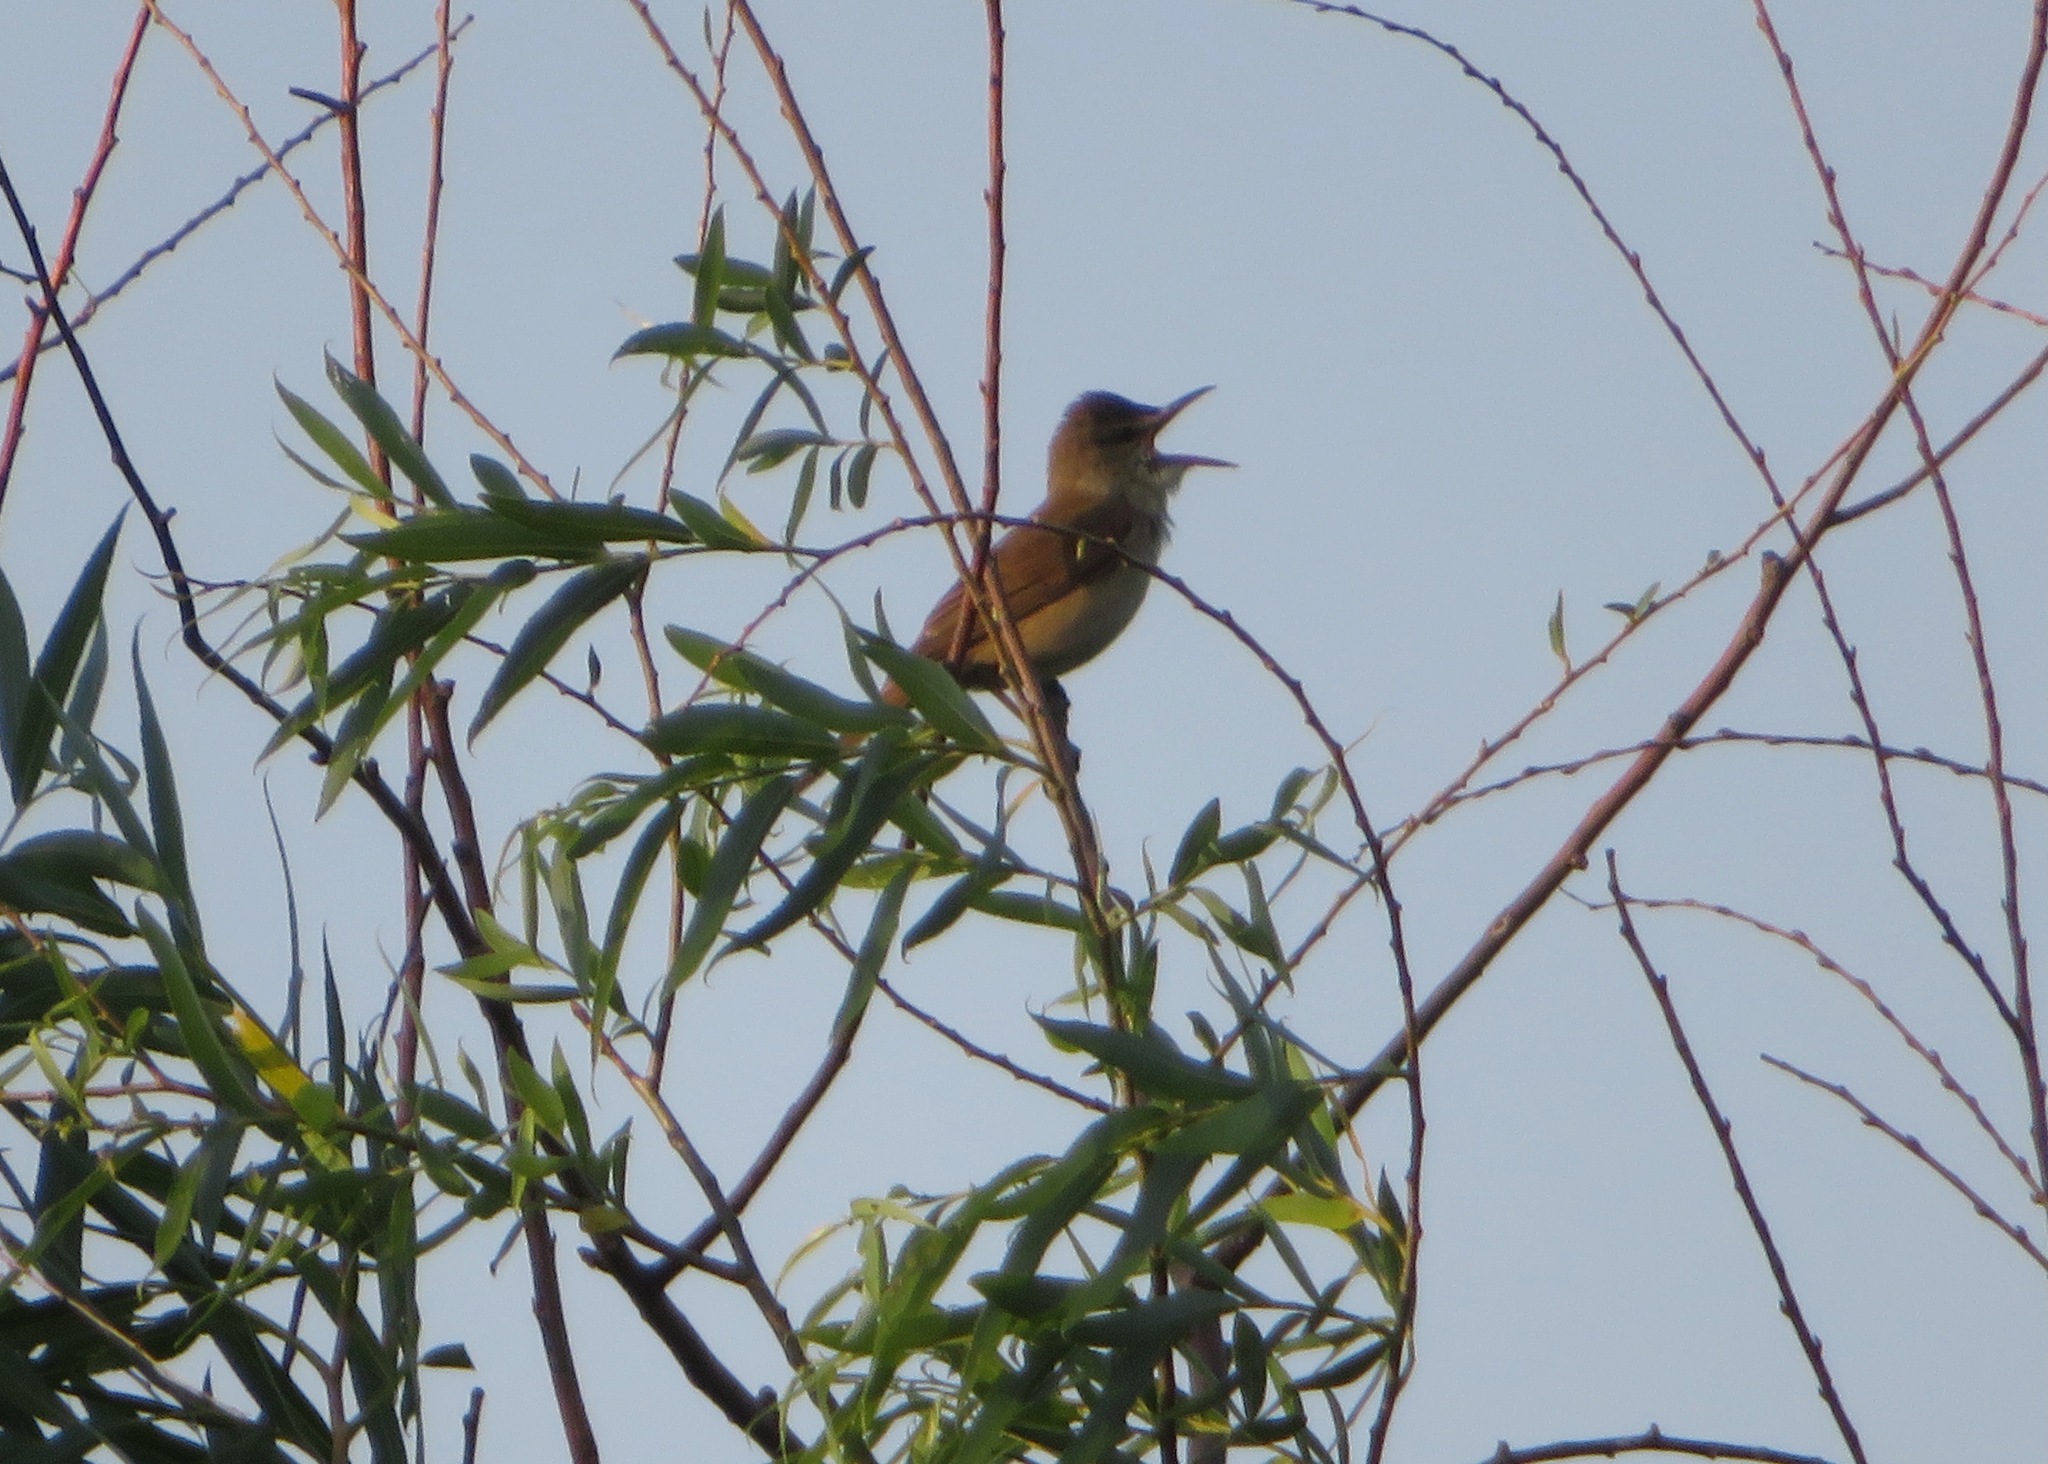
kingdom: Animalia
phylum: Chordata
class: Aves
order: Passeriformes
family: Acrocephalidae
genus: Acrocephalus
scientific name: Acrocephalus orientalis
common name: Oriental reed warbler
